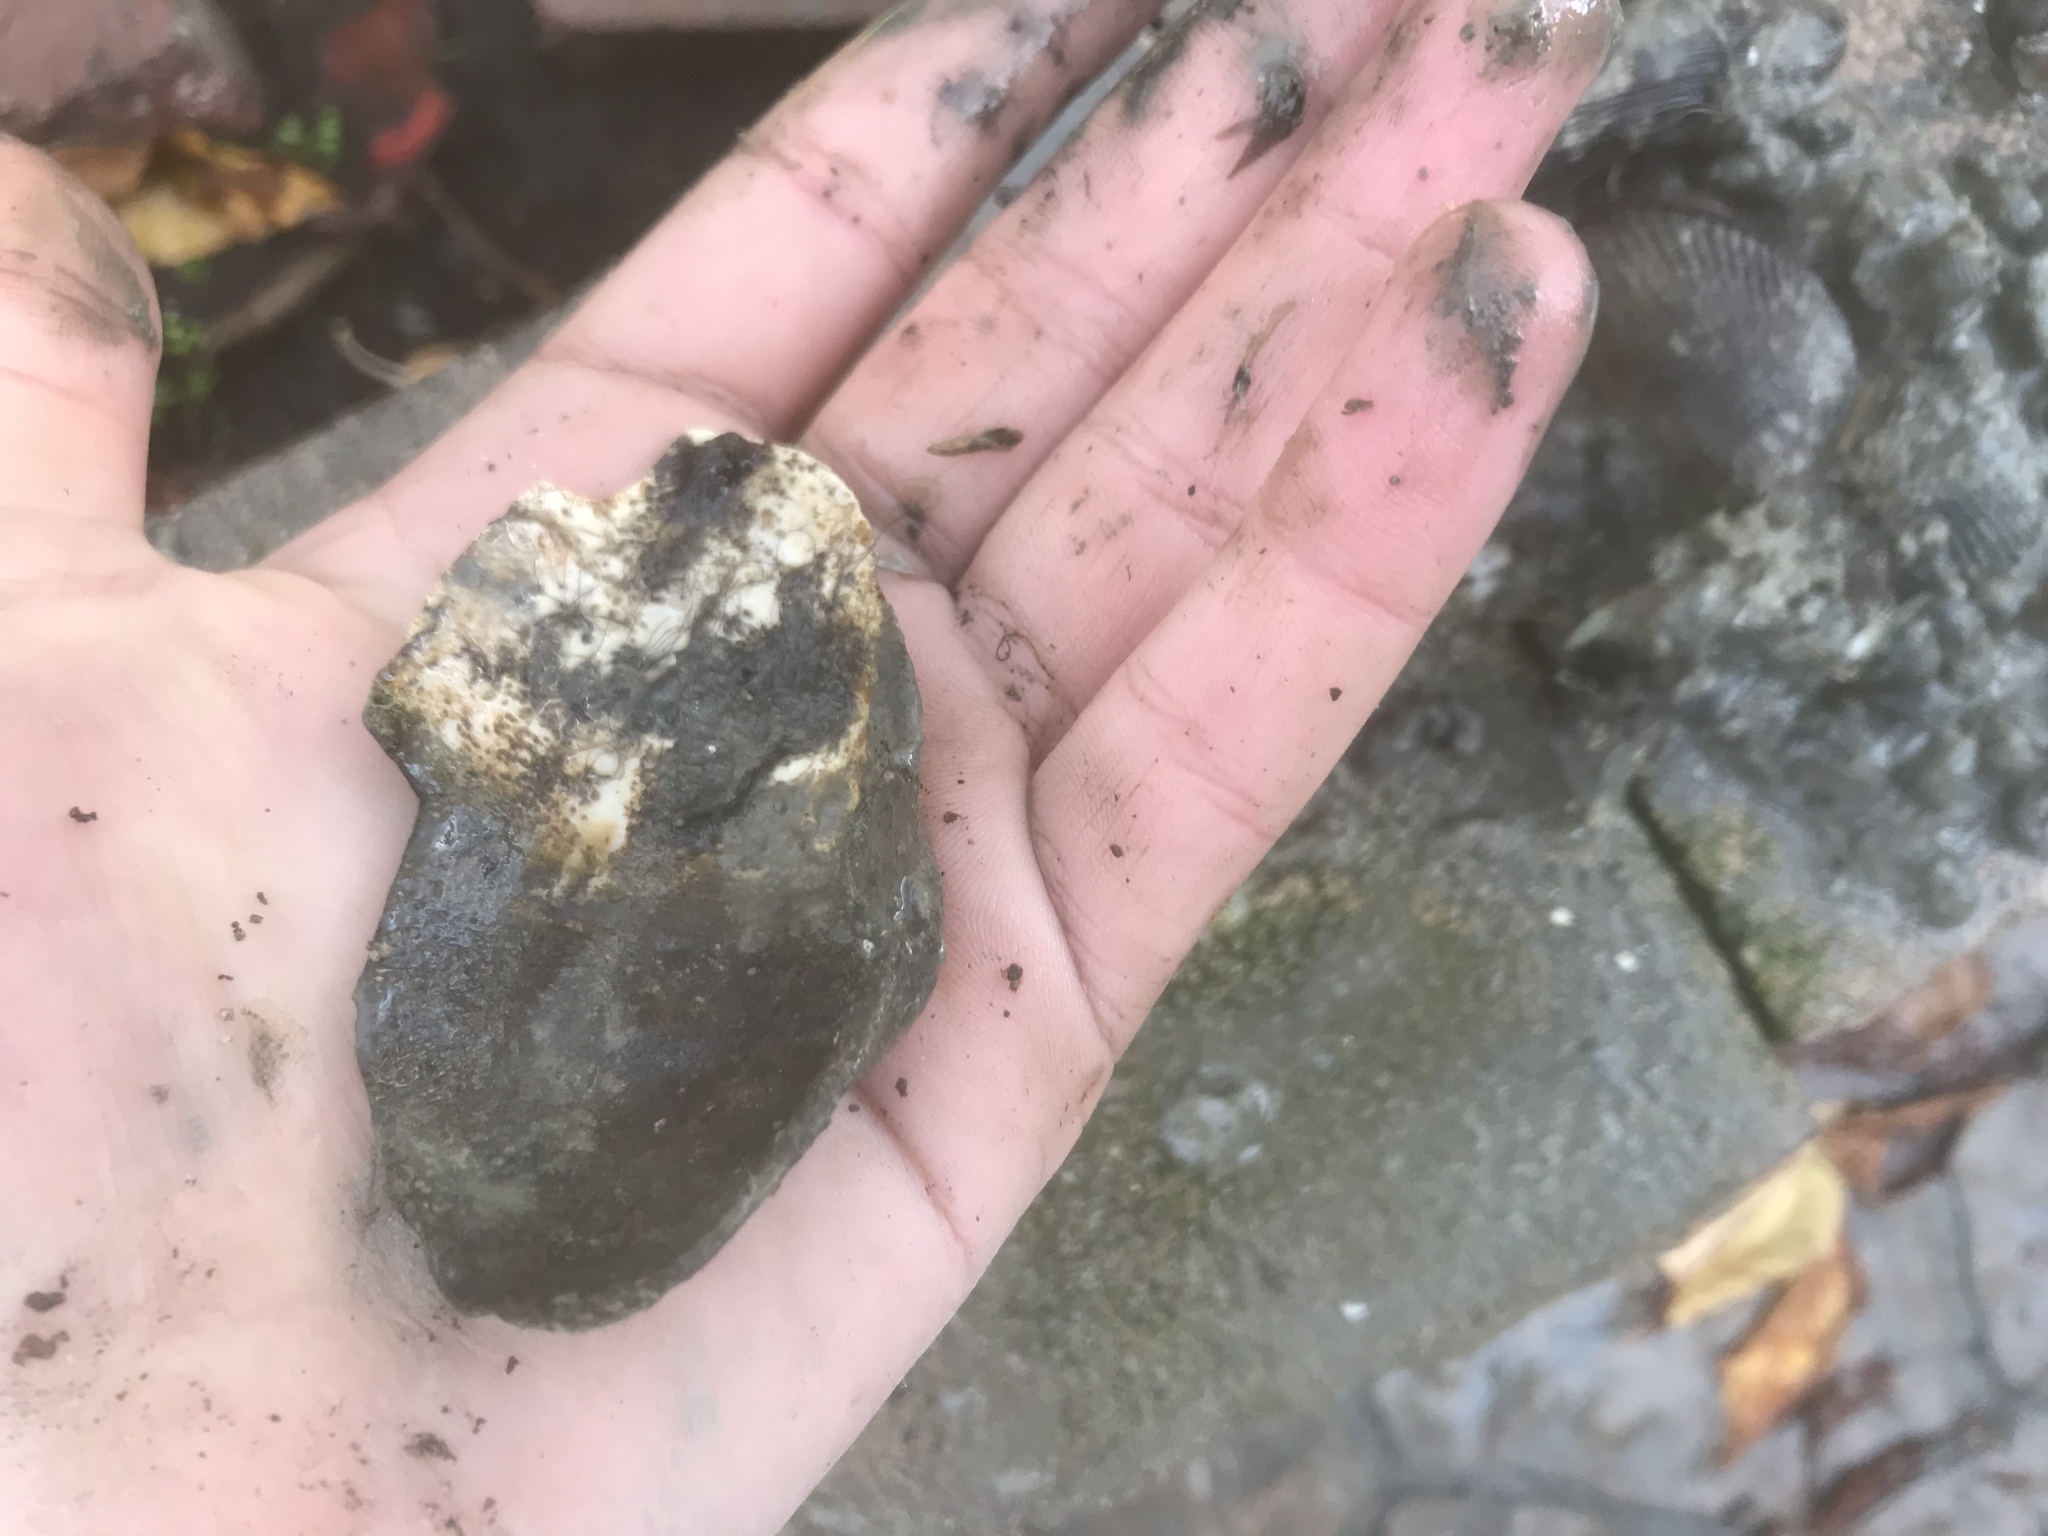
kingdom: Animalia
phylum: Mollusca
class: Bivalvia
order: Myida
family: Myidae
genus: Mya
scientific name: Mya arenaria
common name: Soft-shelled clam
